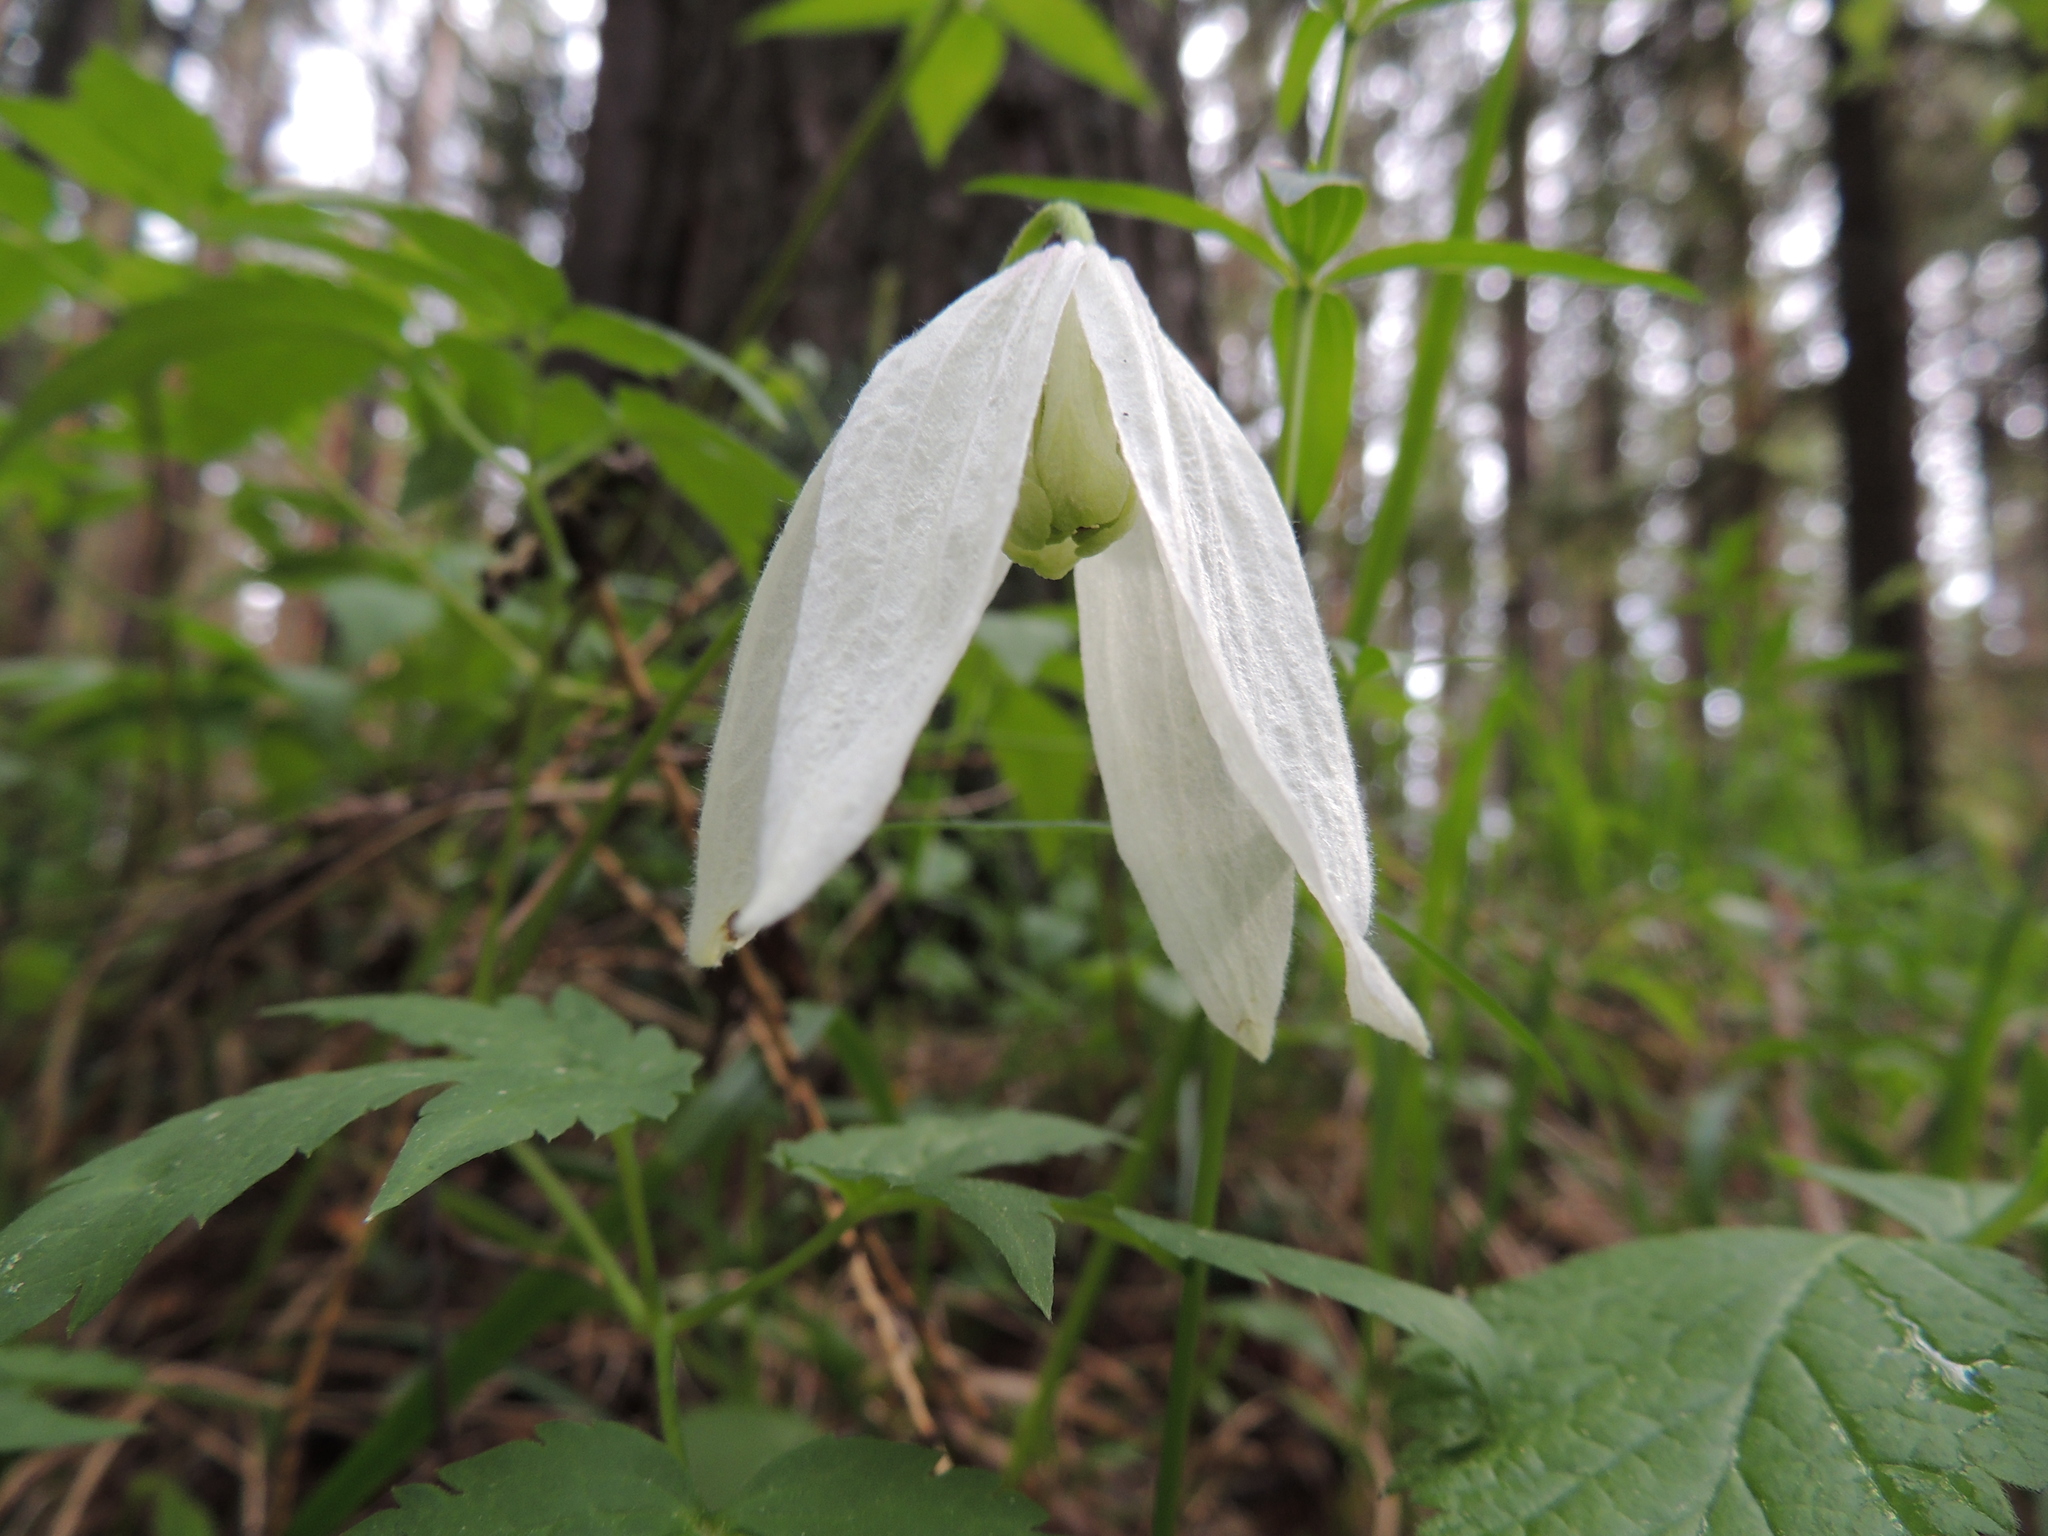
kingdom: Plantae
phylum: Tracheophyta
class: Magnoliopsida
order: Ranunculales
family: Ranunculaceae
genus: Clematis
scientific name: Clematis sibirica
